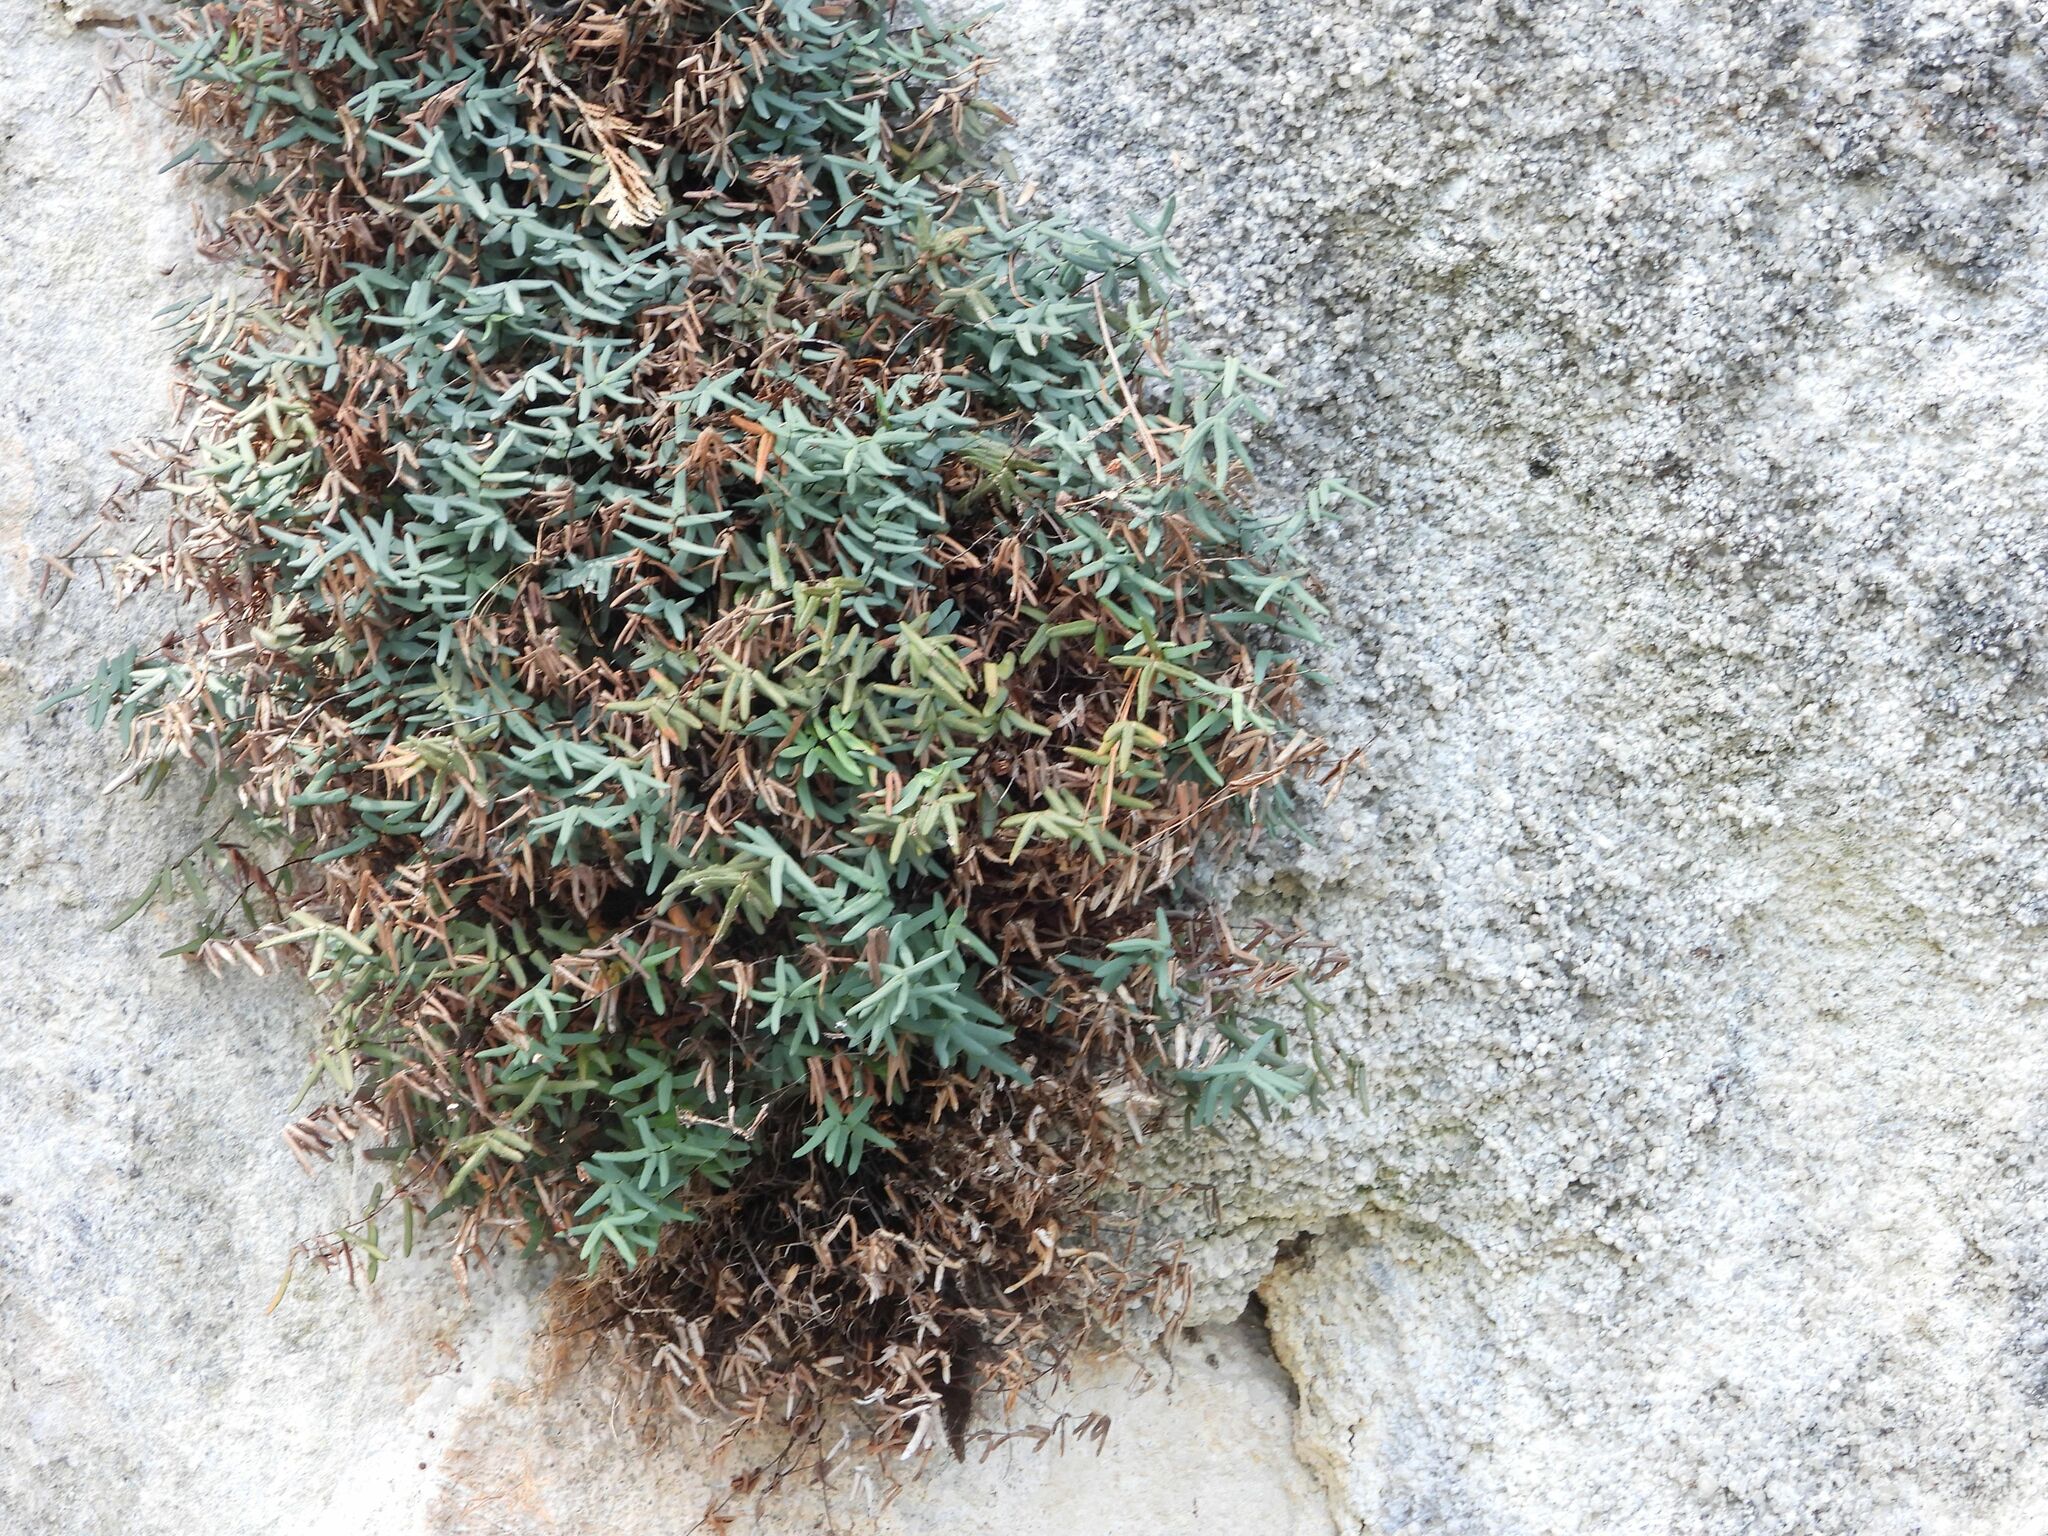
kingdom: Plantae
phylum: Tracheophyta
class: Polypodiopsida
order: Polypodiales
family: Pteridaceae
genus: Pellaea
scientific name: Pellaea glabella
